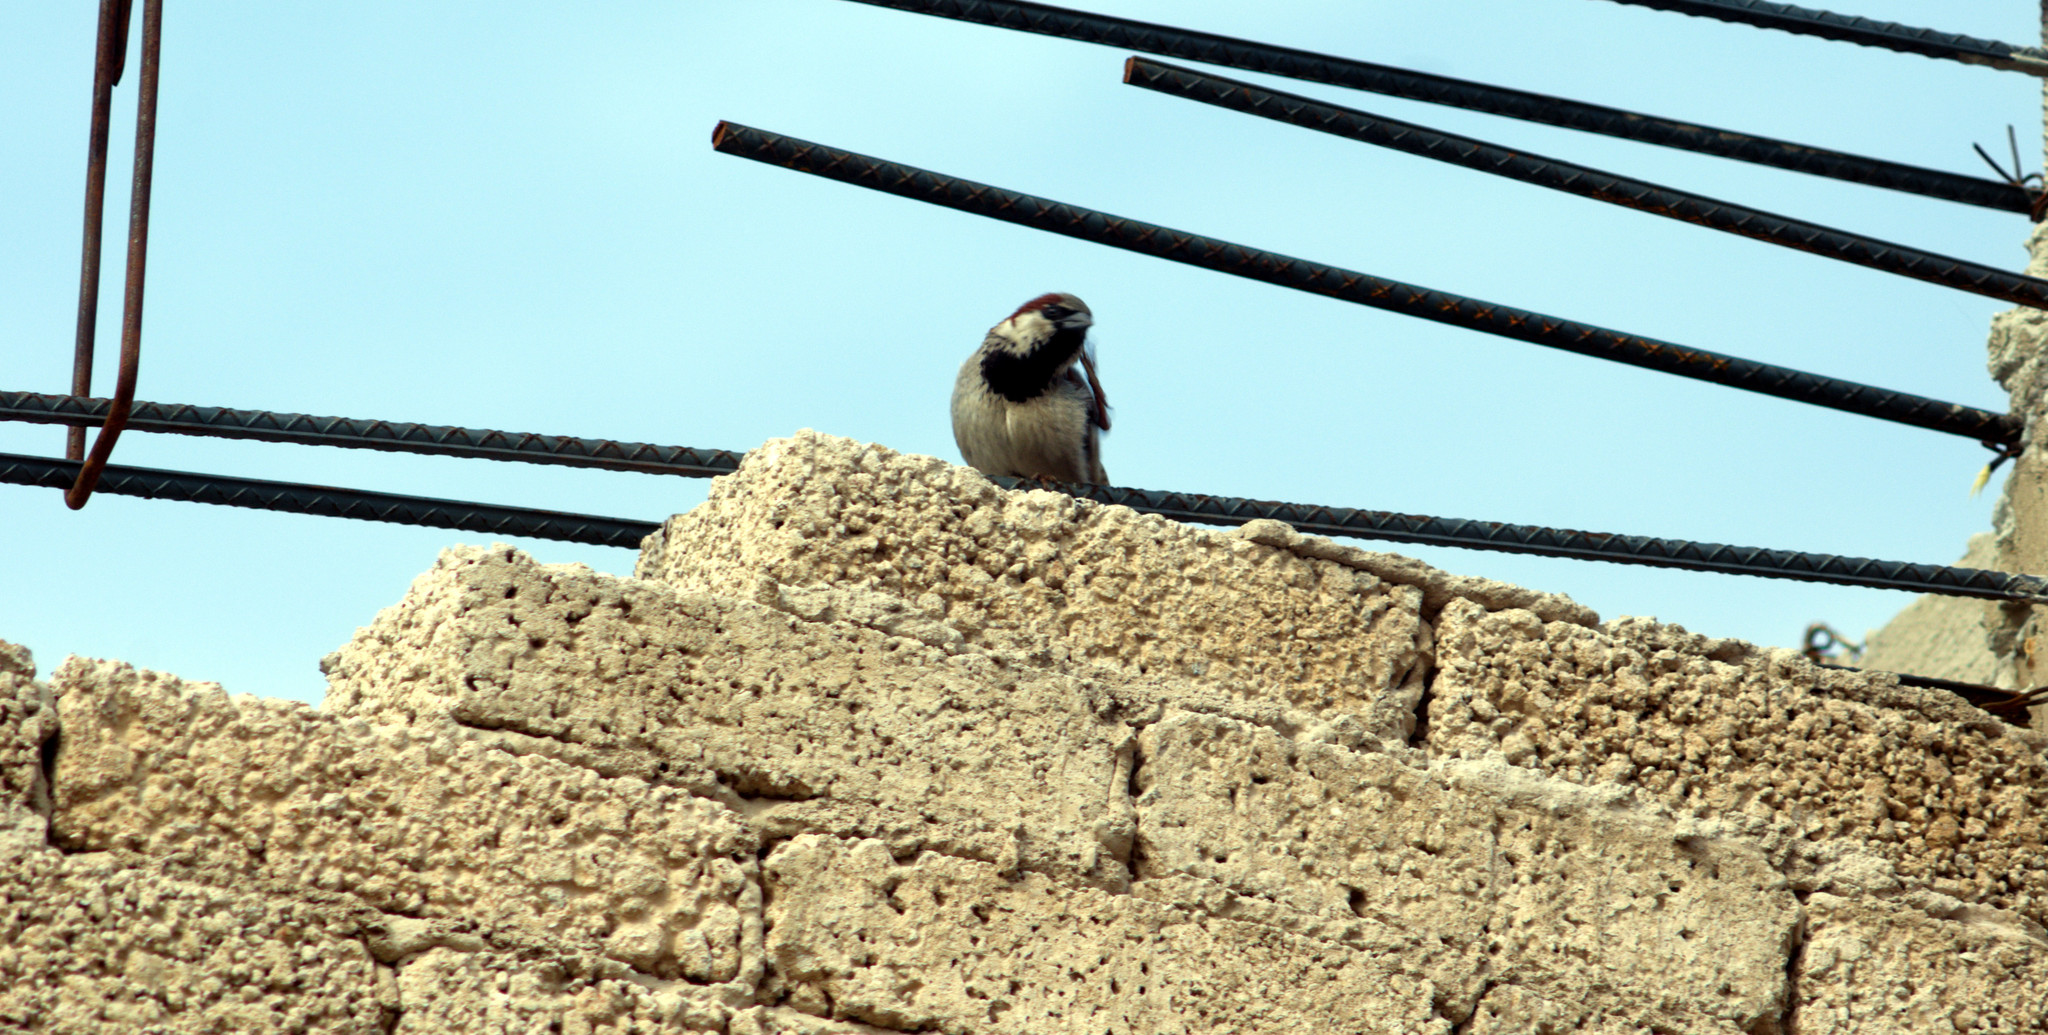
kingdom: Animalia
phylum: Chordata
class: Aves
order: Passeriformes
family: Passeridae
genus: Passer
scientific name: Passer domesticus
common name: House sparrow
